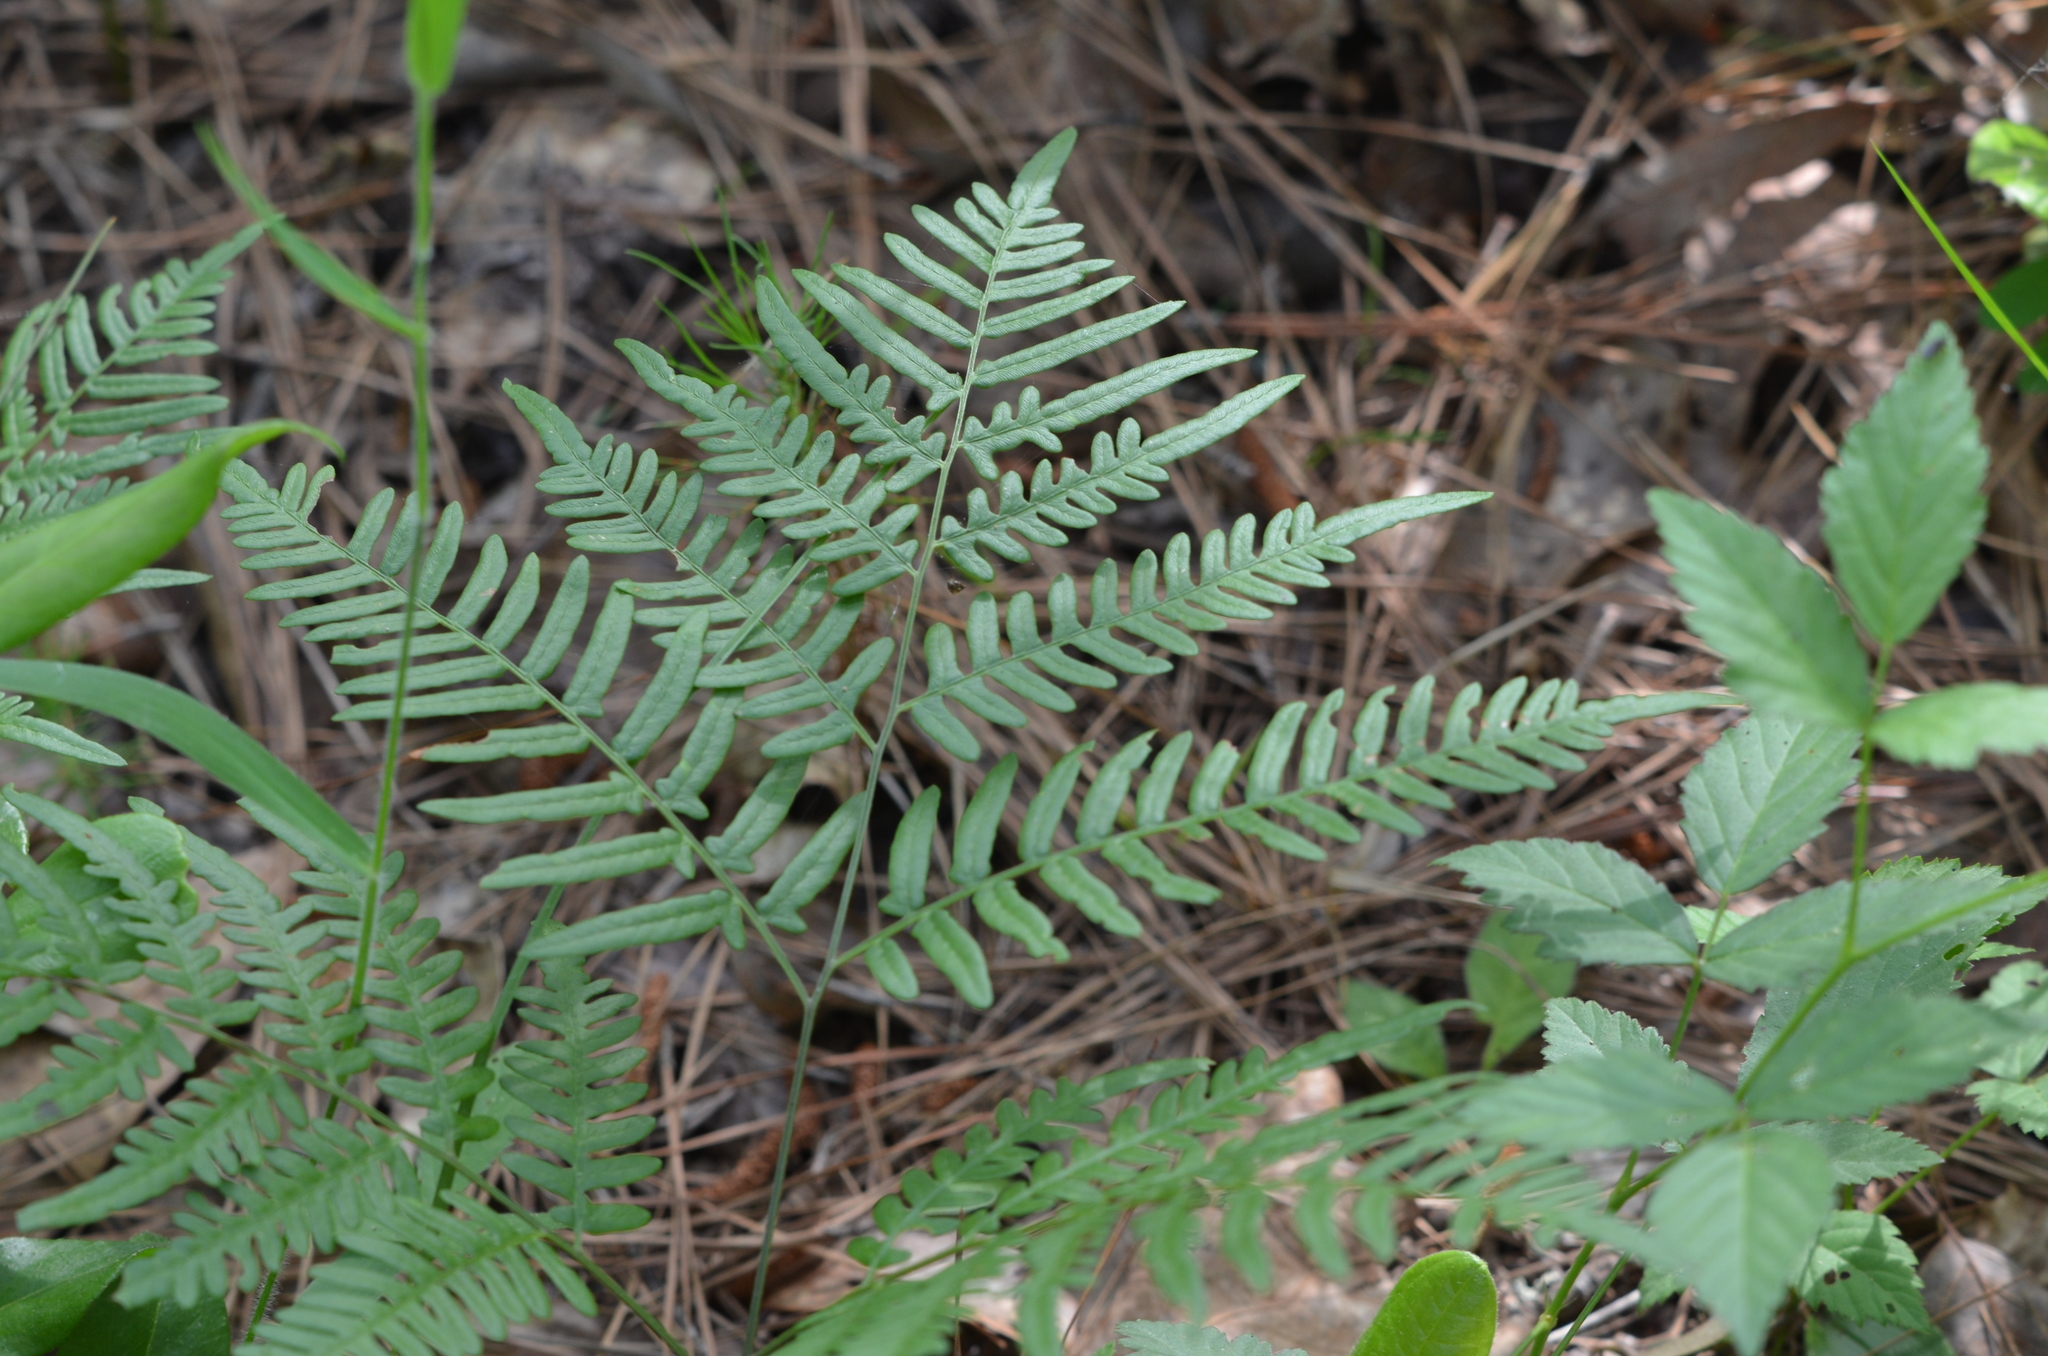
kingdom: Plantae
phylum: Tracheophyta
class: Polypodiopsida
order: Polypodiales
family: Dennstaedtiaceae
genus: Pteridium
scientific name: Pteridium
